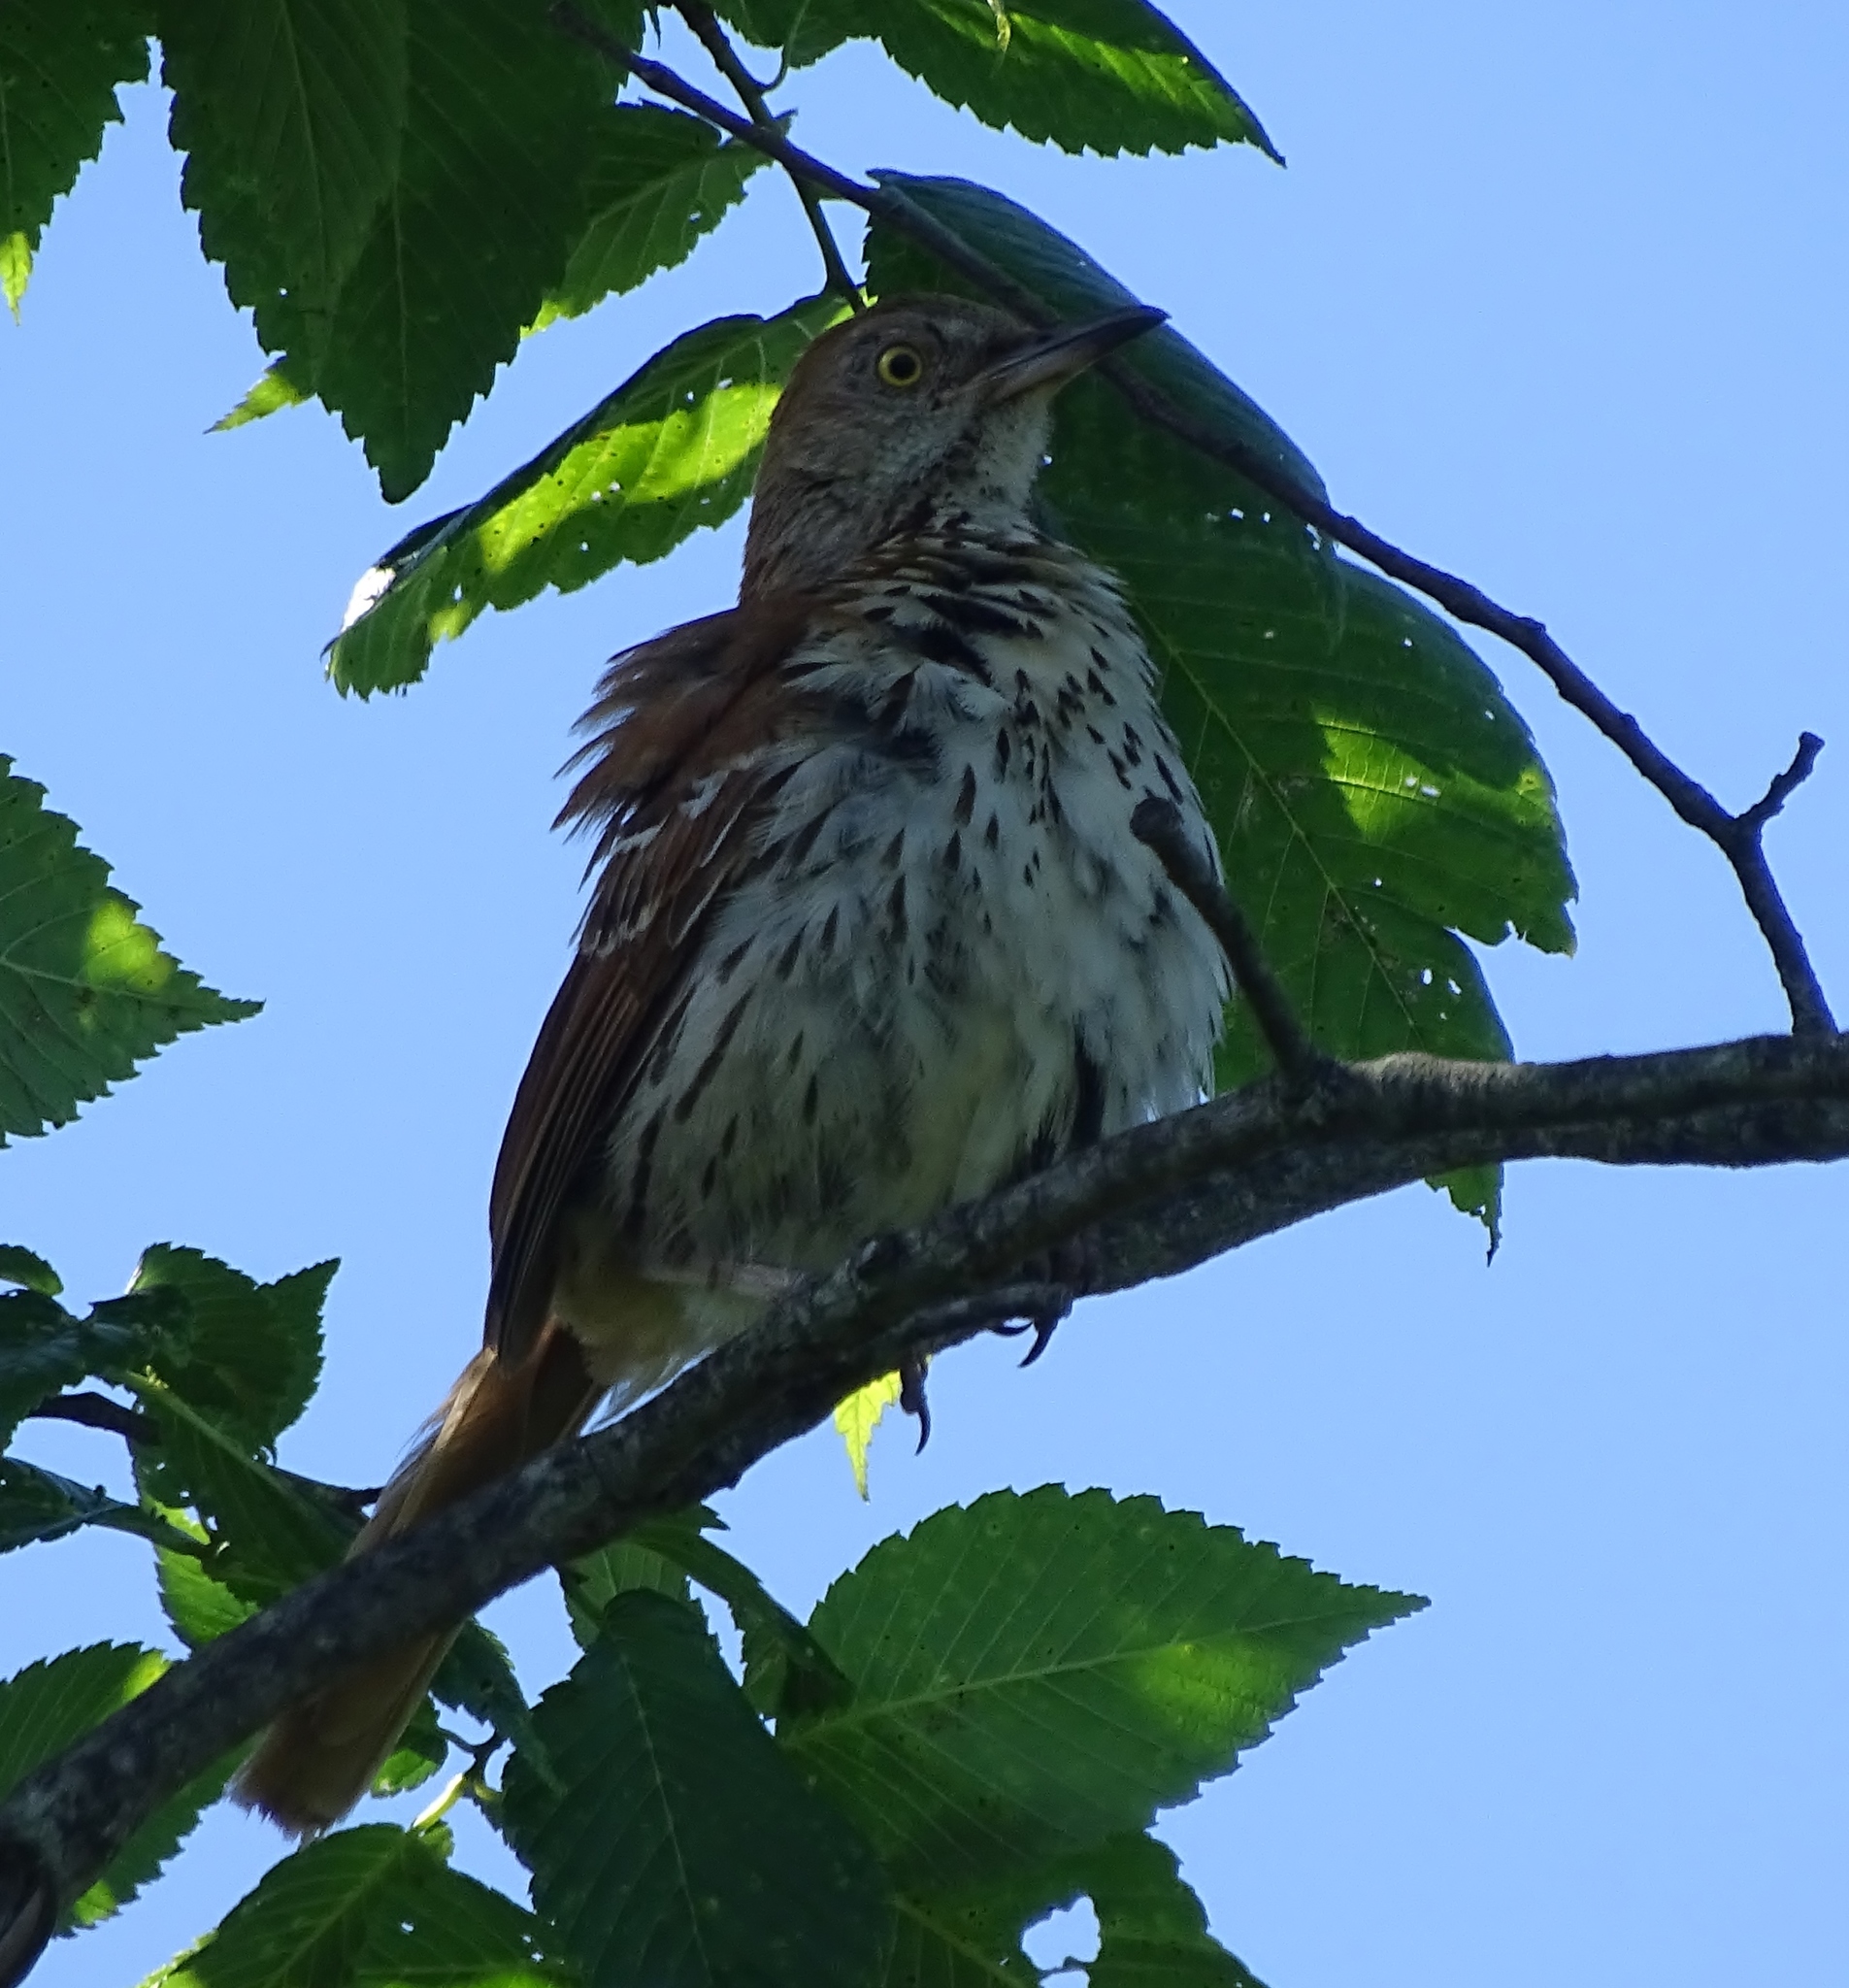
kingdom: Animalia
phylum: Chordata
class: Aves
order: Passeriformes
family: Mimidae
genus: Toxostoma
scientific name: Toxostoma rufum
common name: Brown thrasher
